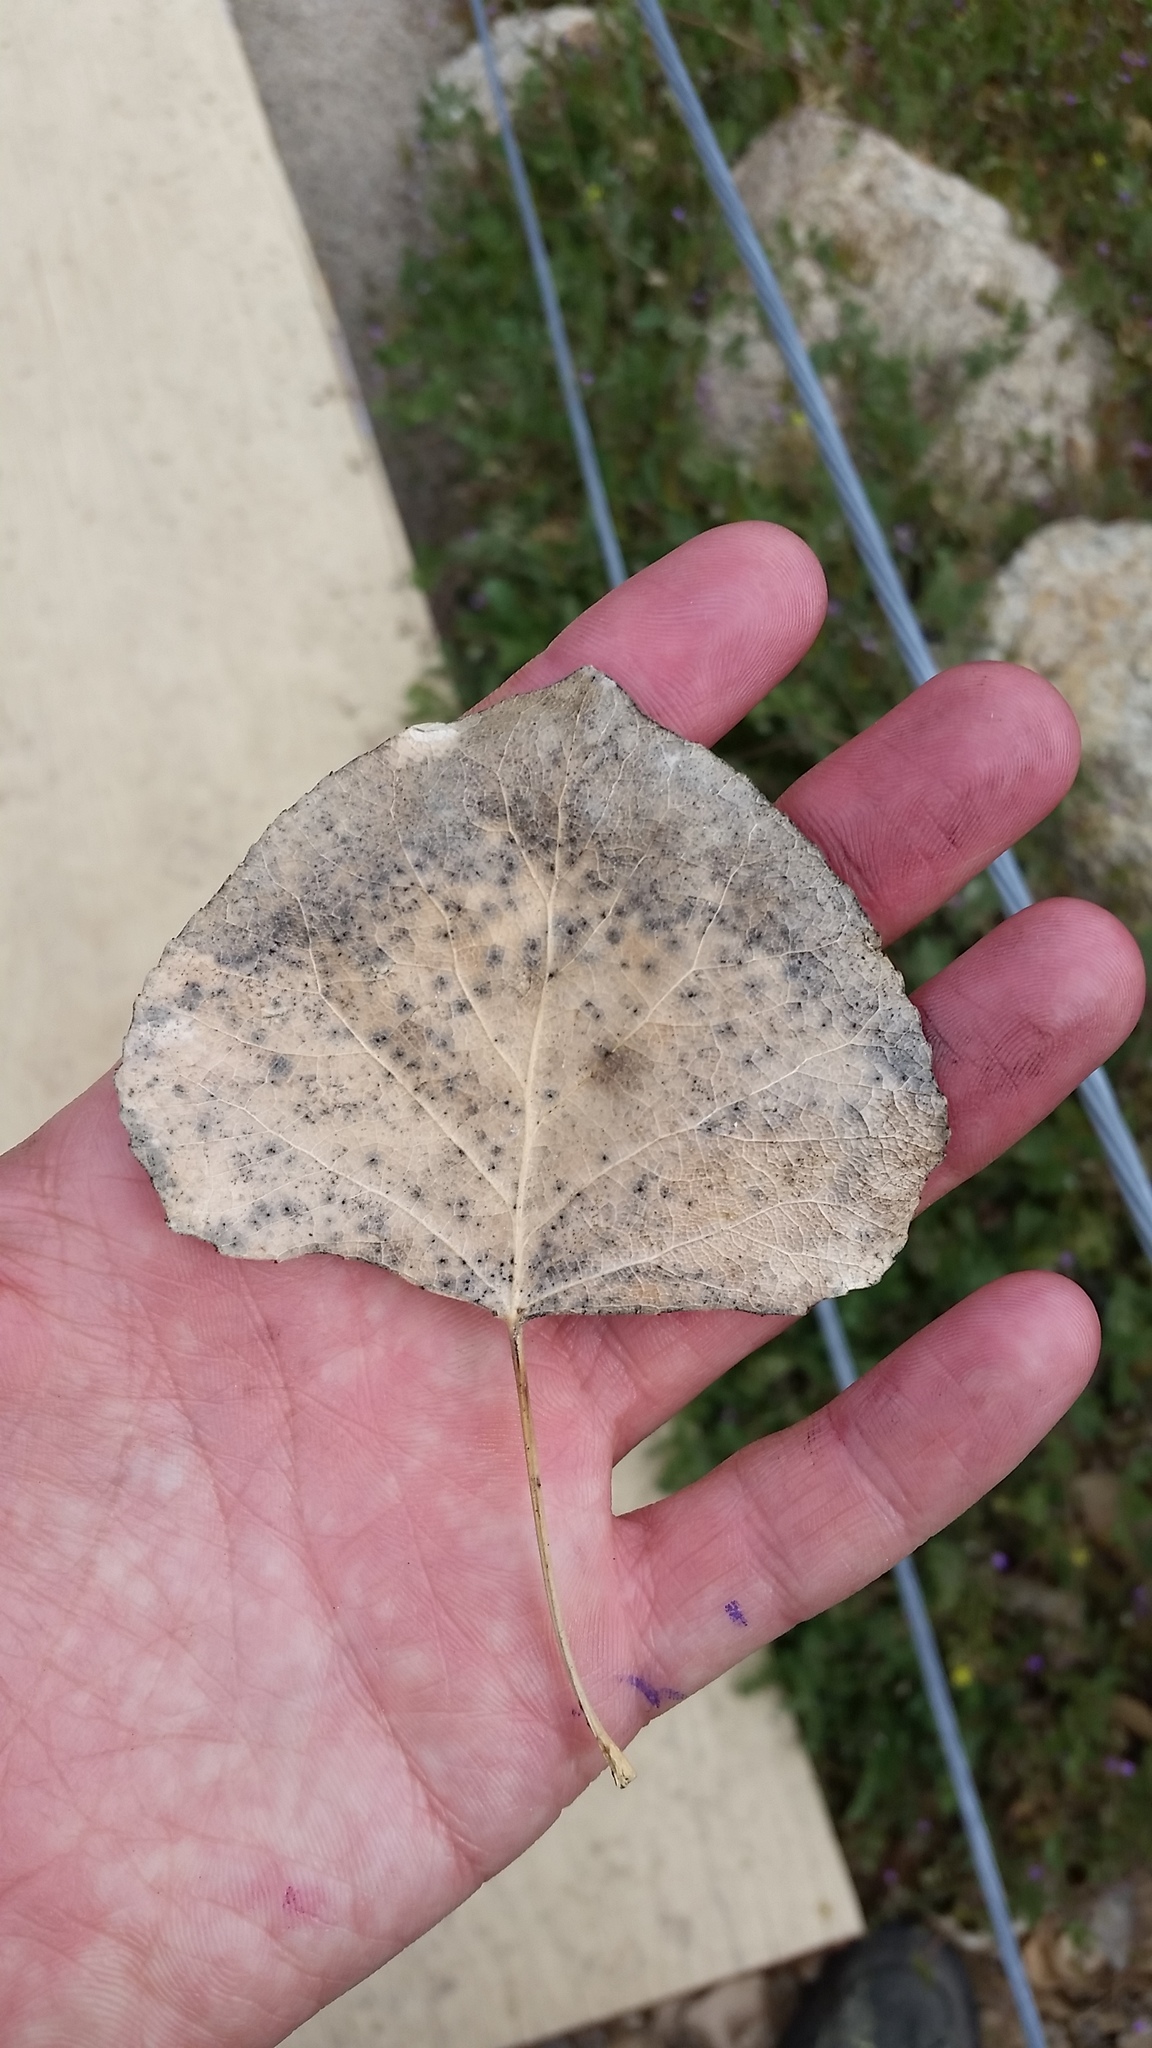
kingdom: Plantae
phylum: Tracheophyta
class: Magnoliopsida
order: Malpighiales
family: Salicaceae
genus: Populus
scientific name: Populus fremontii
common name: Fremont's cottonwood
